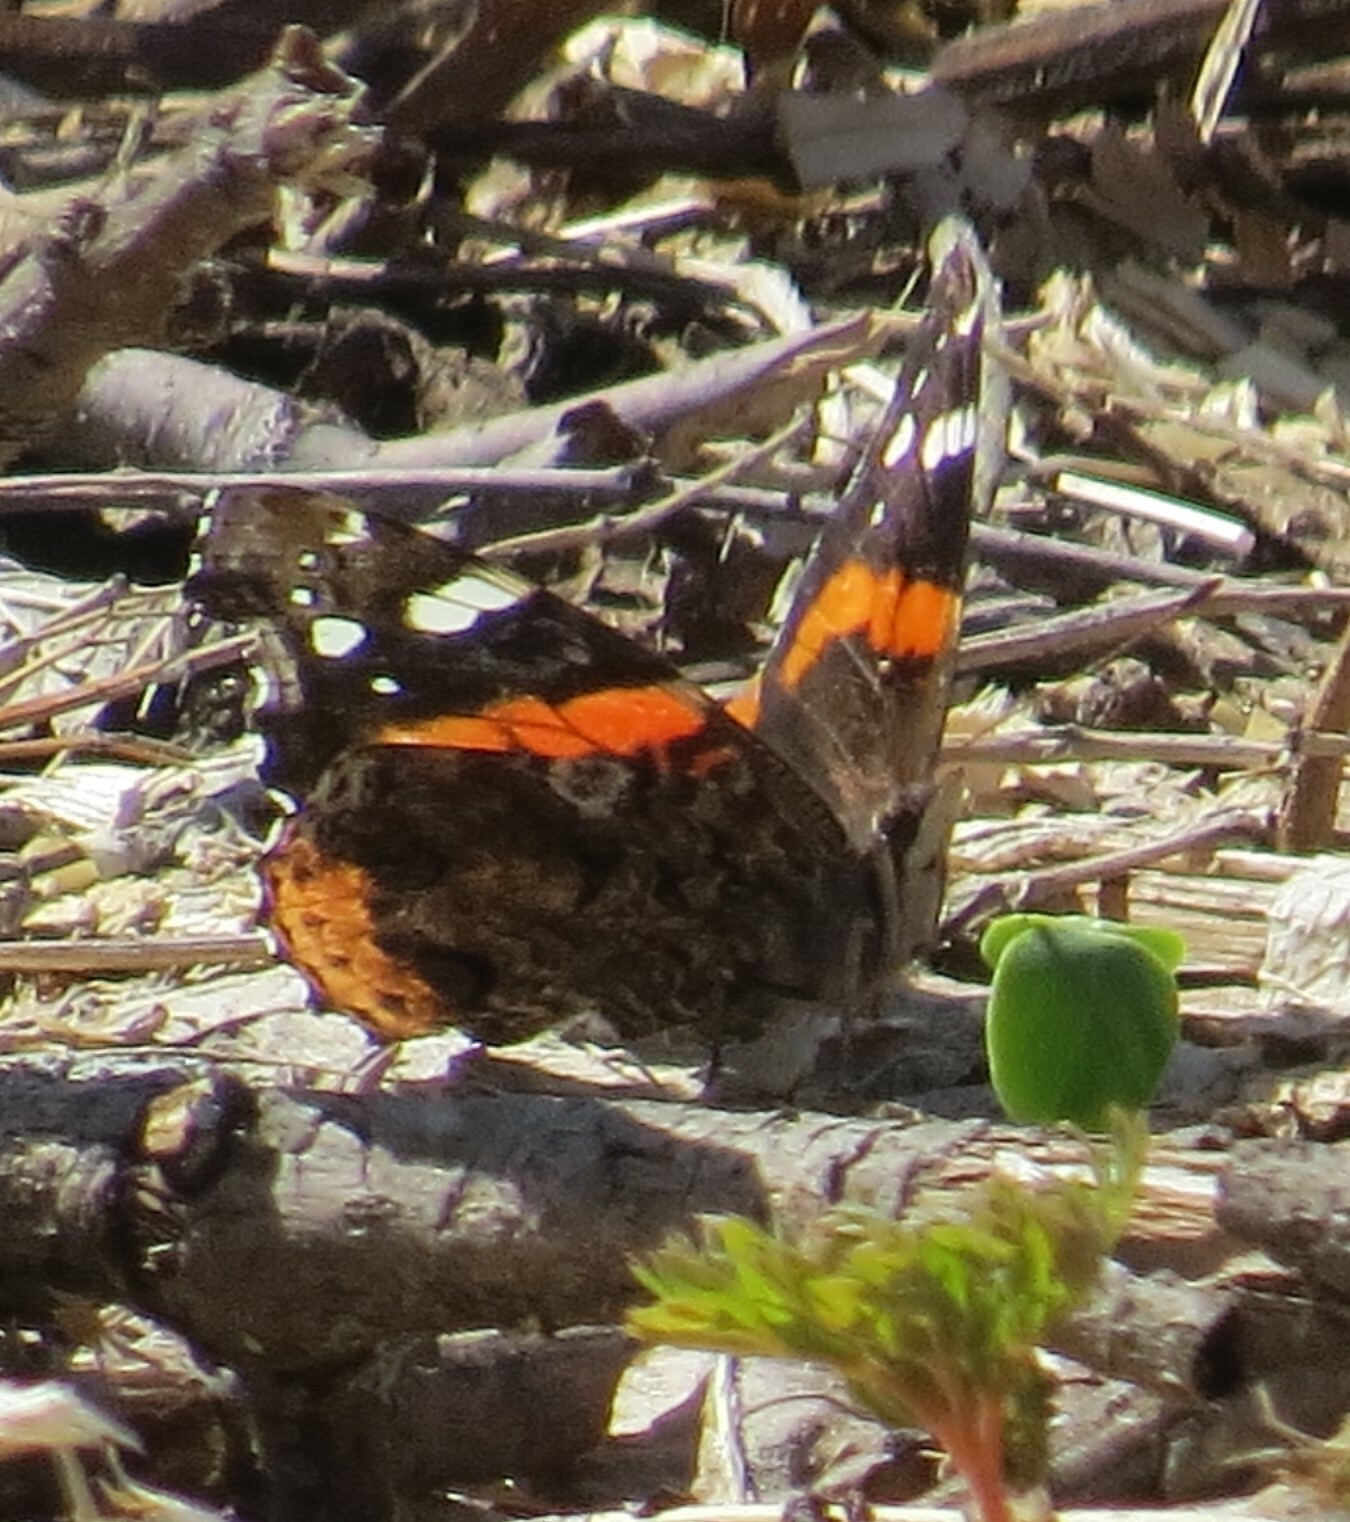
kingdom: Animalia
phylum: Arthropoda
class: Insecta
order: Lepidoptera
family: Nymphalidae
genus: Vanessa
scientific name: Vanessa atalanta
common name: Red admiral
